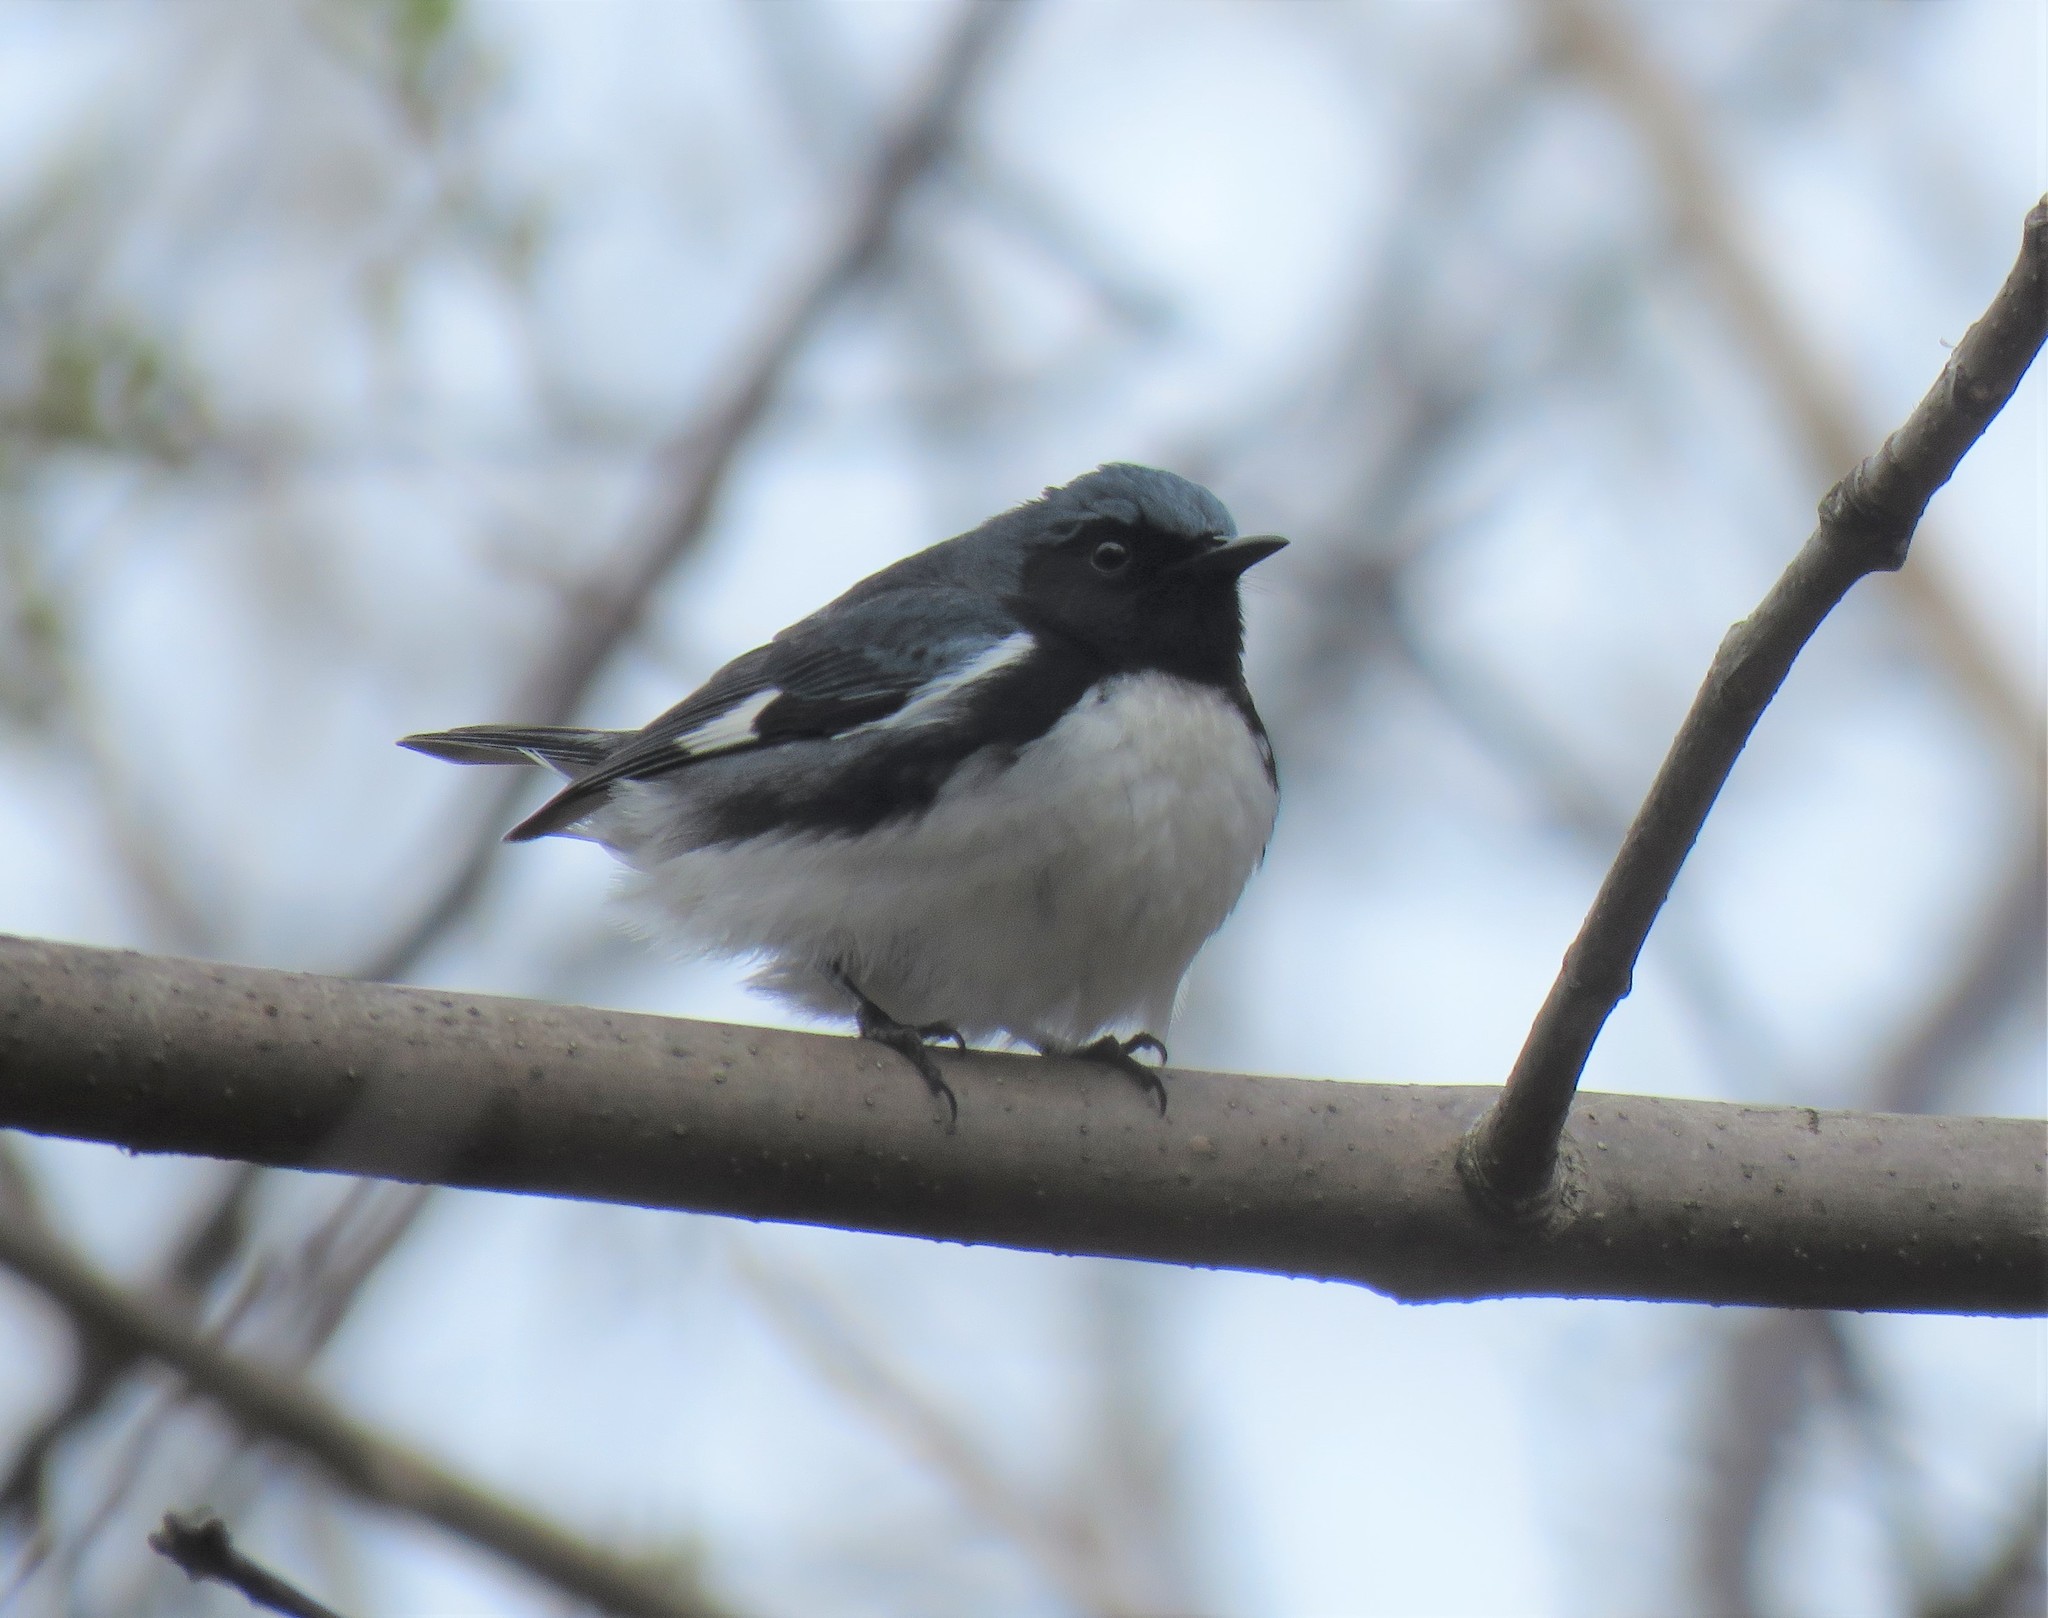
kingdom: Animalia
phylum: Chordata
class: Aves
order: Passeriformes
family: Parulidae
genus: Setophaga
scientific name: Setophaga caerulescens
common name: Black-throated blue warbler
